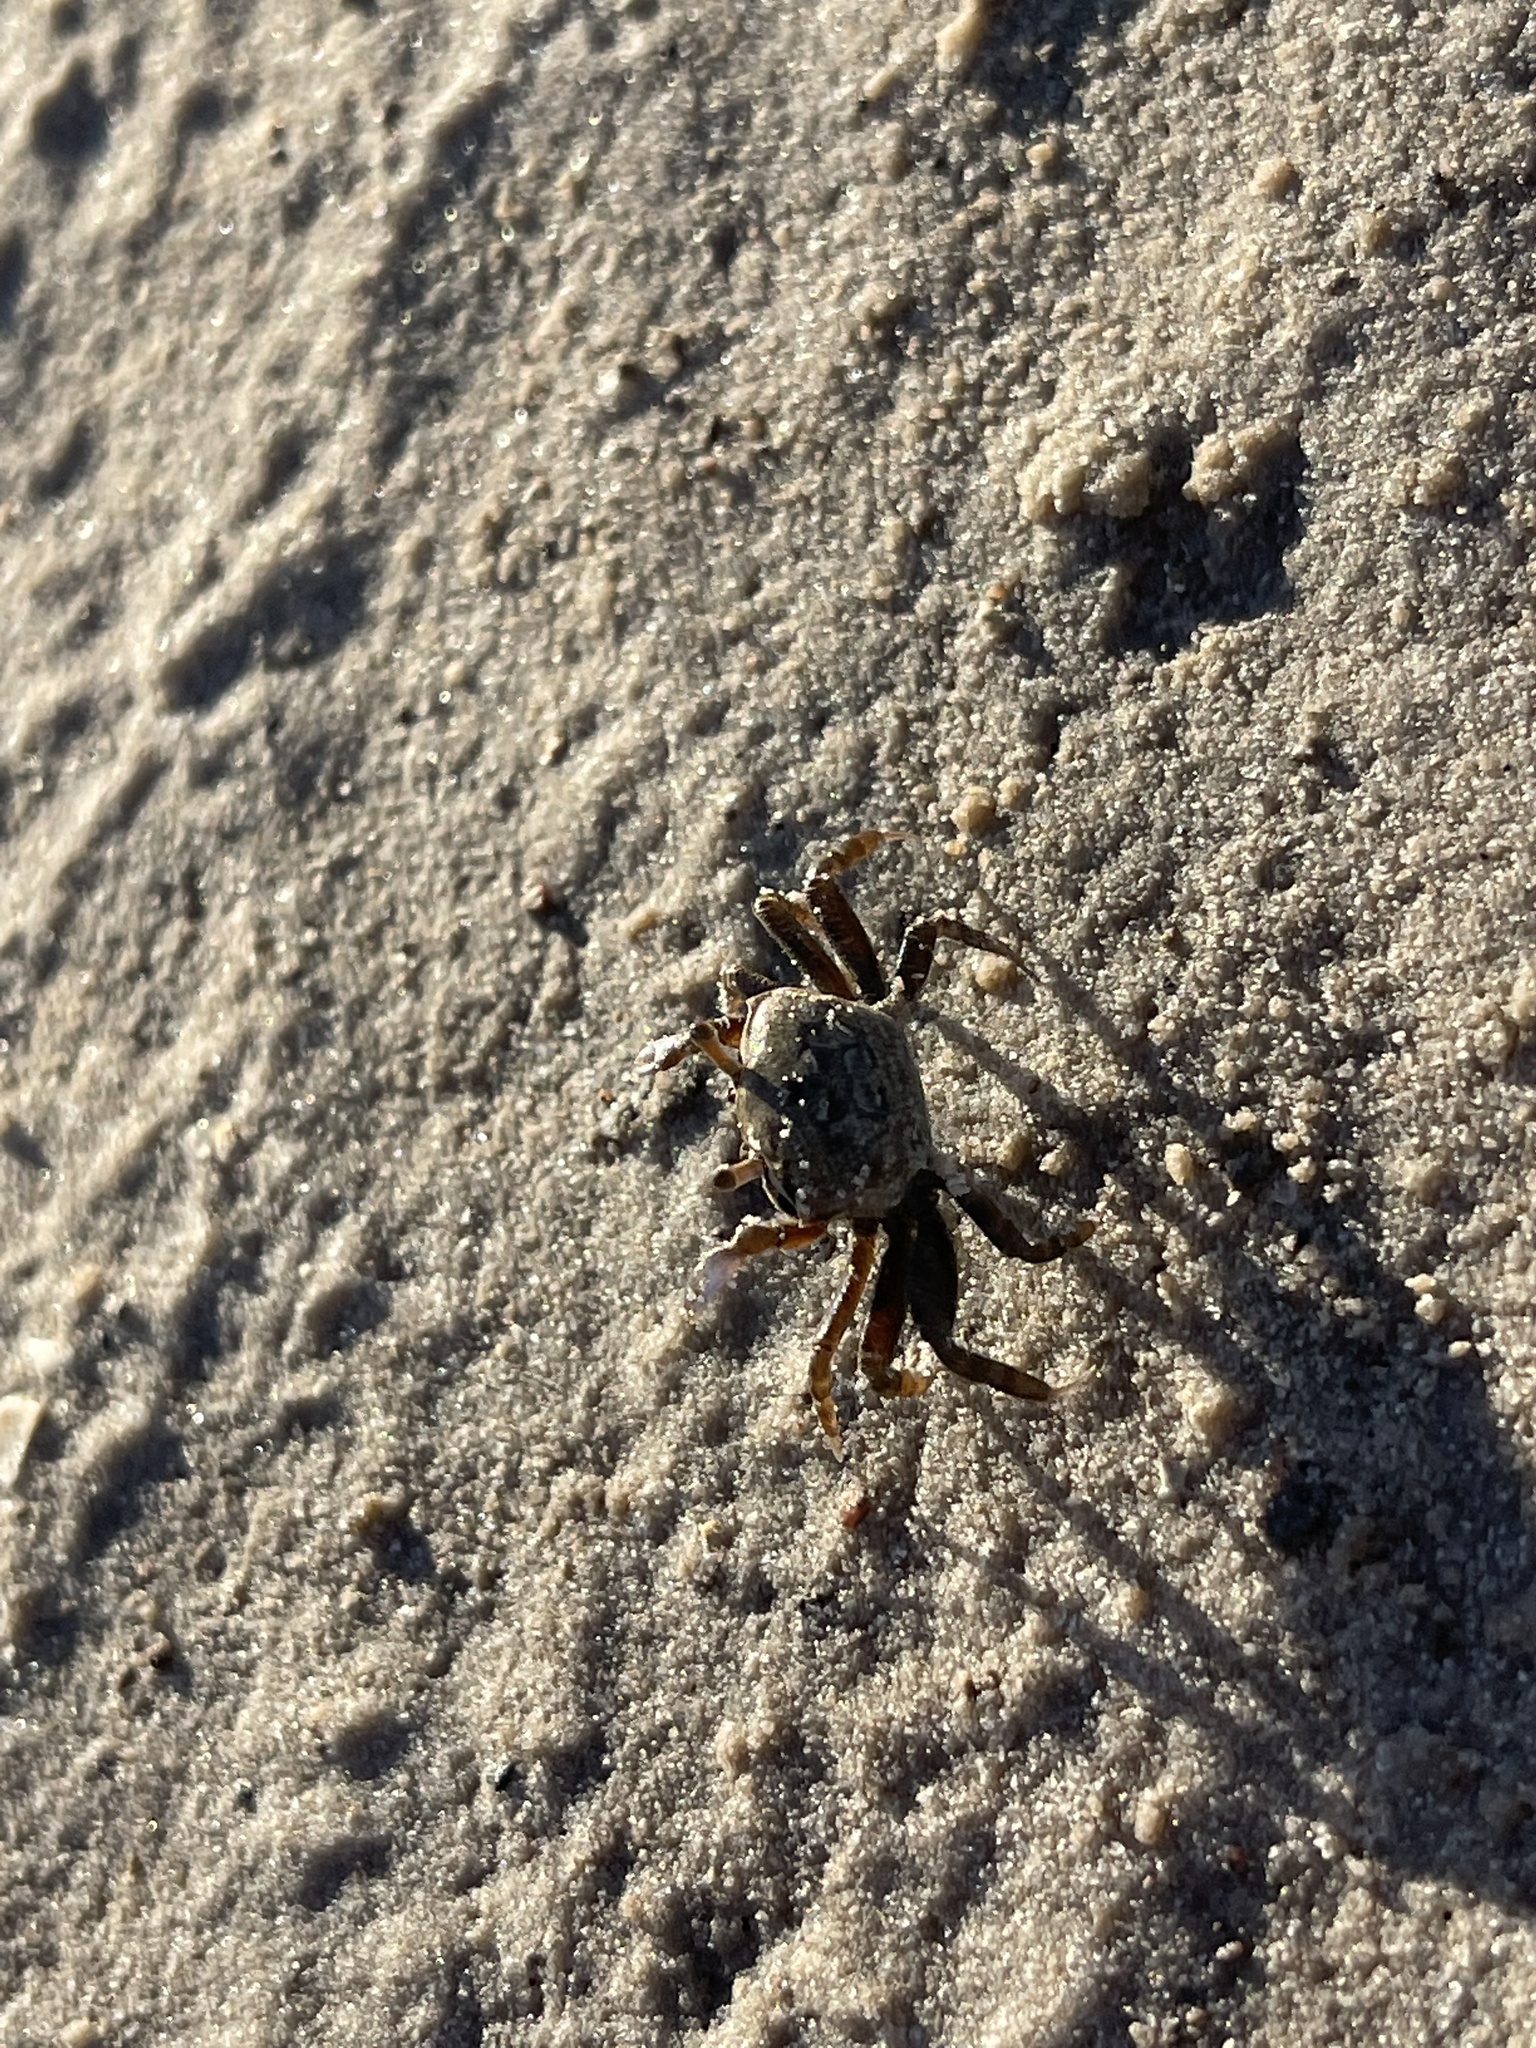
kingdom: Animalia
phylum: Arthropoda
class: Malacostraca
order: Decapoda
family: Ocypodidae
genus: Leptuca
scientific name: Leptuca pugilator
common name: Atlantic sand fiddler crab
